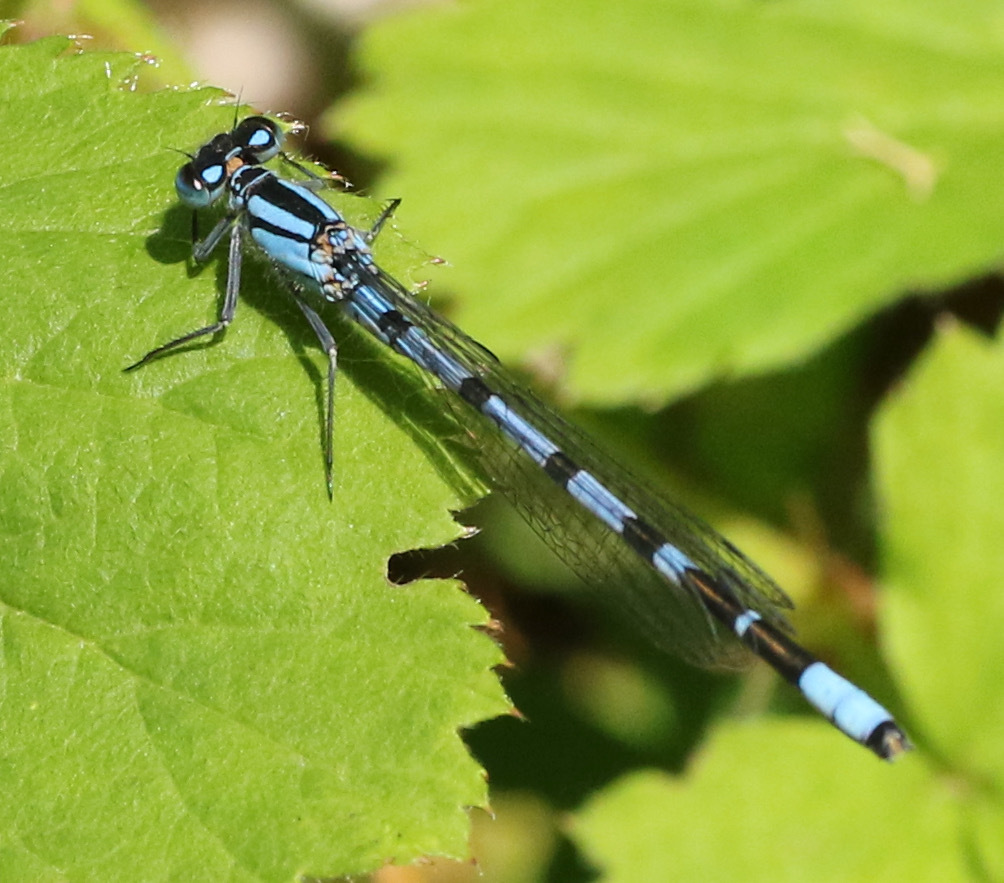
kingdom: Animalia
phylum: Arthropoda
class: Insecta
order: Odonata
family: Coenagrionidae
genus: Enallagma
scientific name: Enallagma cyathigerum
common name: Common blue damselfly
